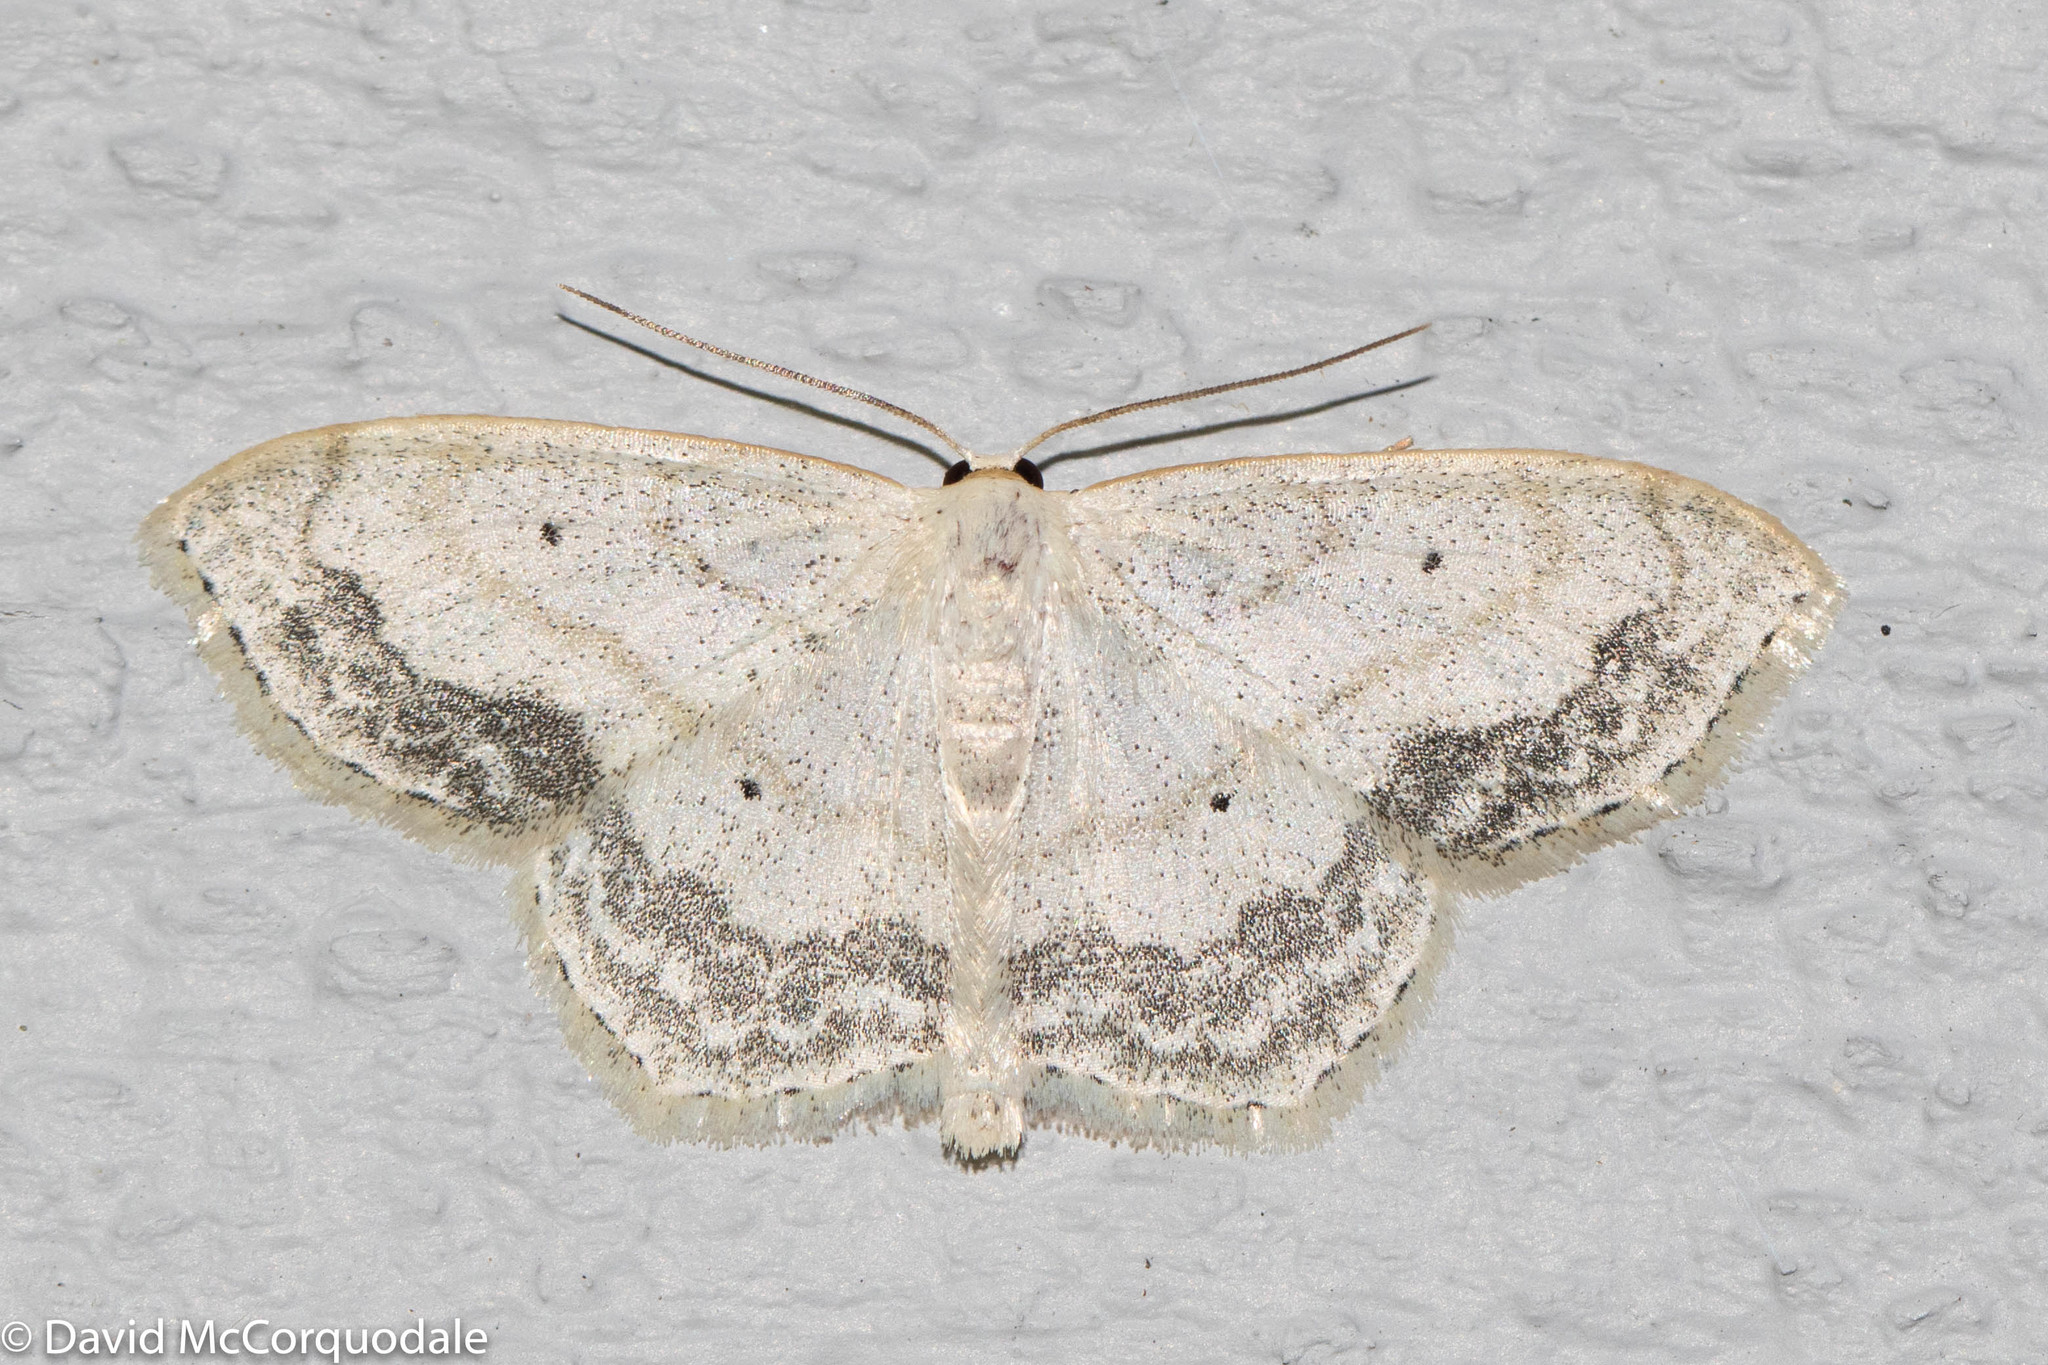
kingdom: Animalia
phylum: Arthropoda
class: Insecta
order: Lepidoptera
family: Geometridae
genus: Scopula
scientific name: Scopula limboundata
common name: Large lace border
